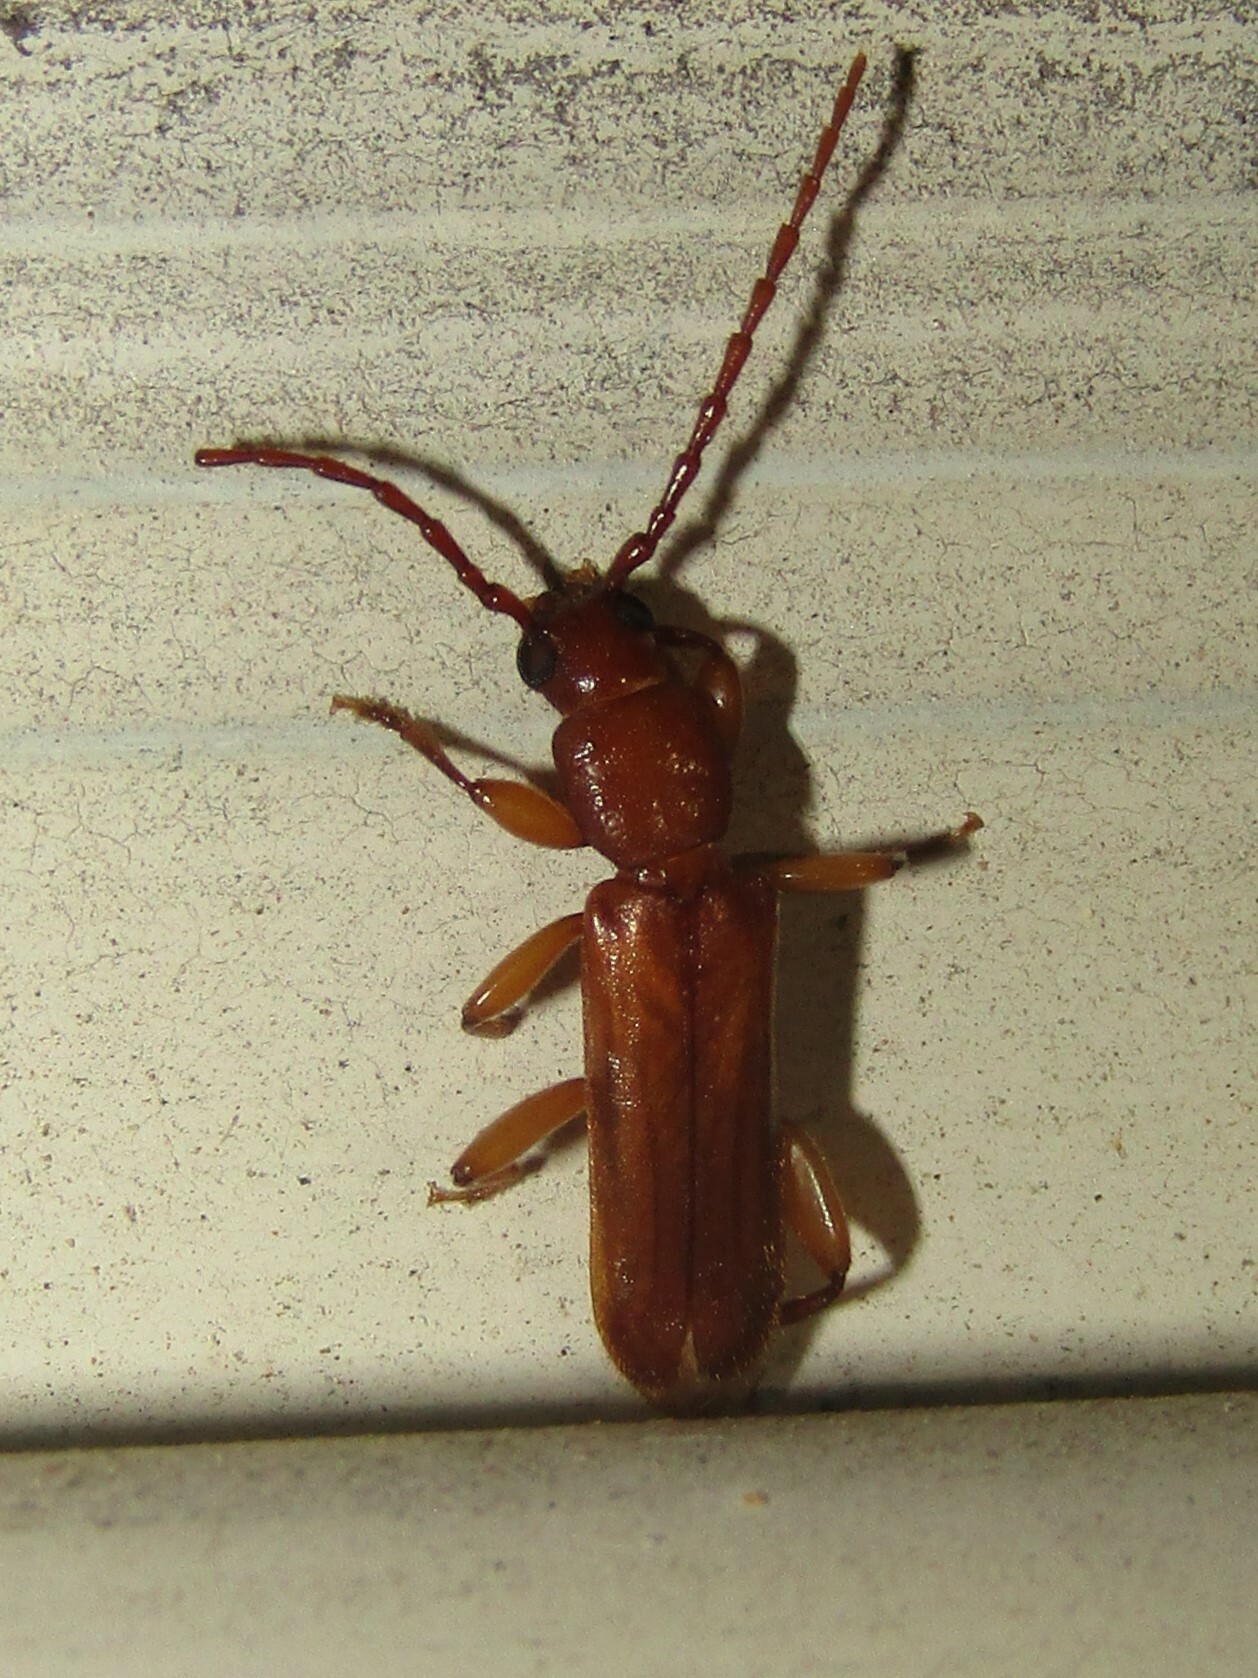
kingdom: Animalia
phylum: Arthropoda
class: Insecta
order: Coleoptera
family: Cerambycidae
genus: Smodicum
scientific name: Smodicum cucujiforme
